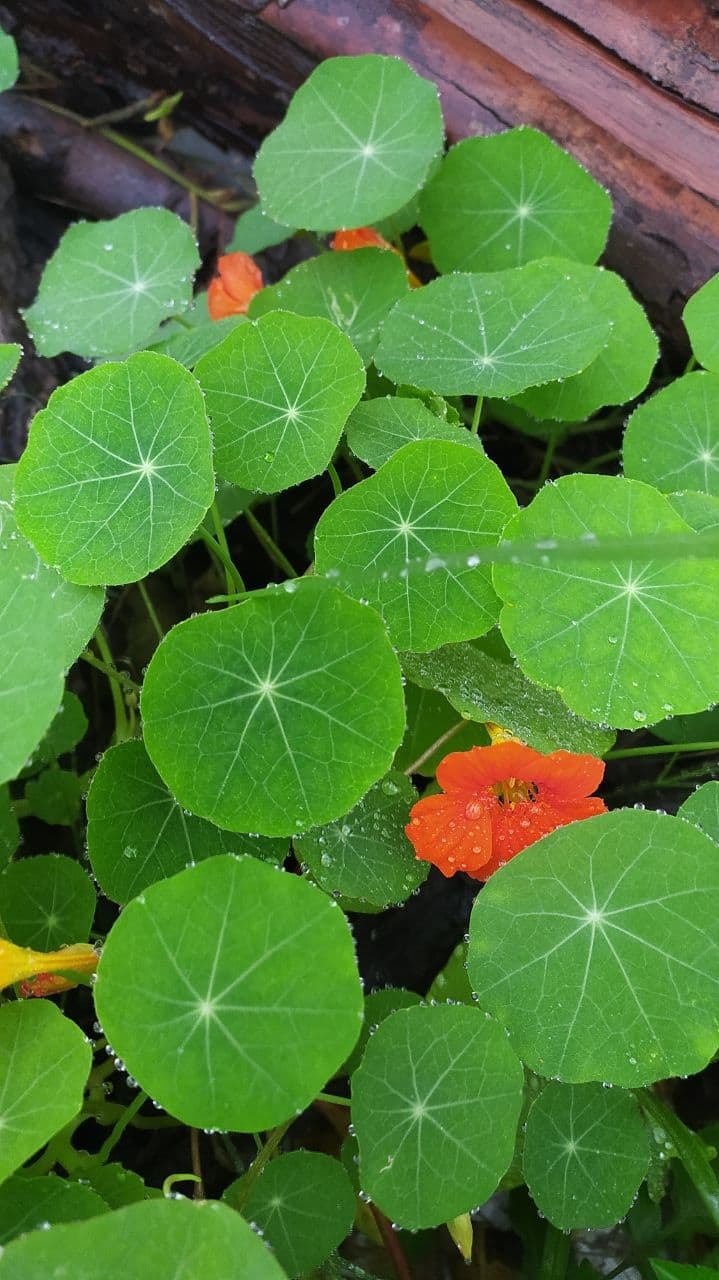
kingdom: Plantae
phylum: Tracheophyta
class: Magnoliopsida
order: Brassicales
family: Tropaeolaceae
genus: Tropaeolum
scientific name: Tropaeolum majus
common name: Nasturtium
